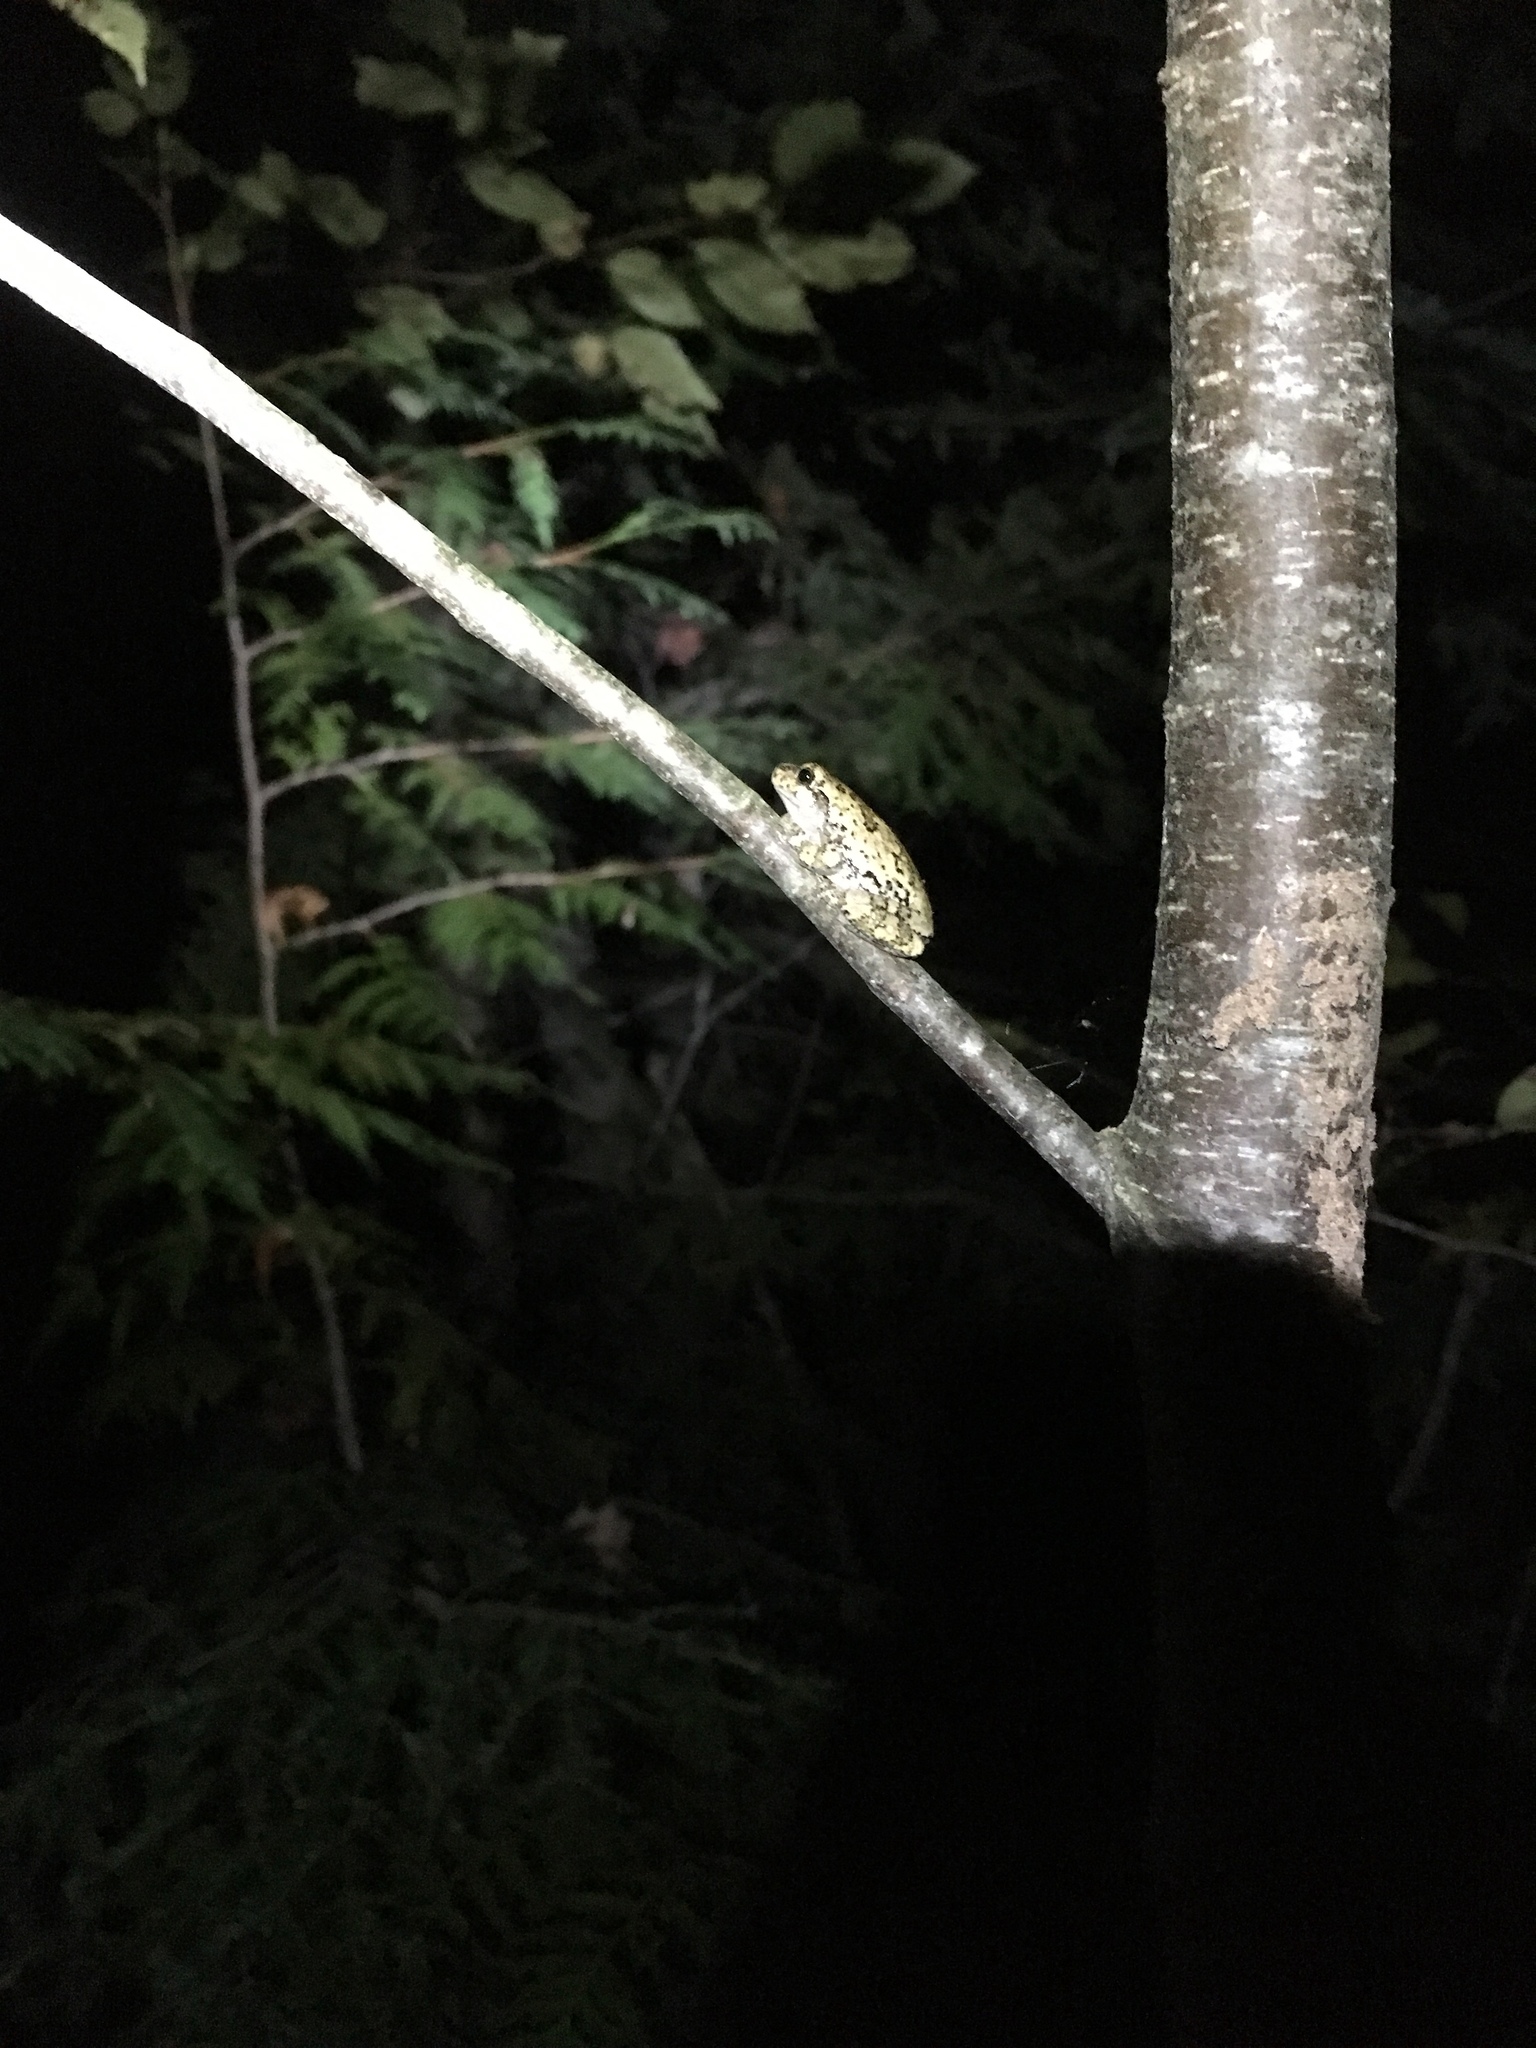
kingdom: Animalia
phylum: Chordata
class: Amphibia
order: Anura
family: Hylidae
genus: Dryophytes
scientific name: Dryophytes versicolor
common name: Gray treefrog
